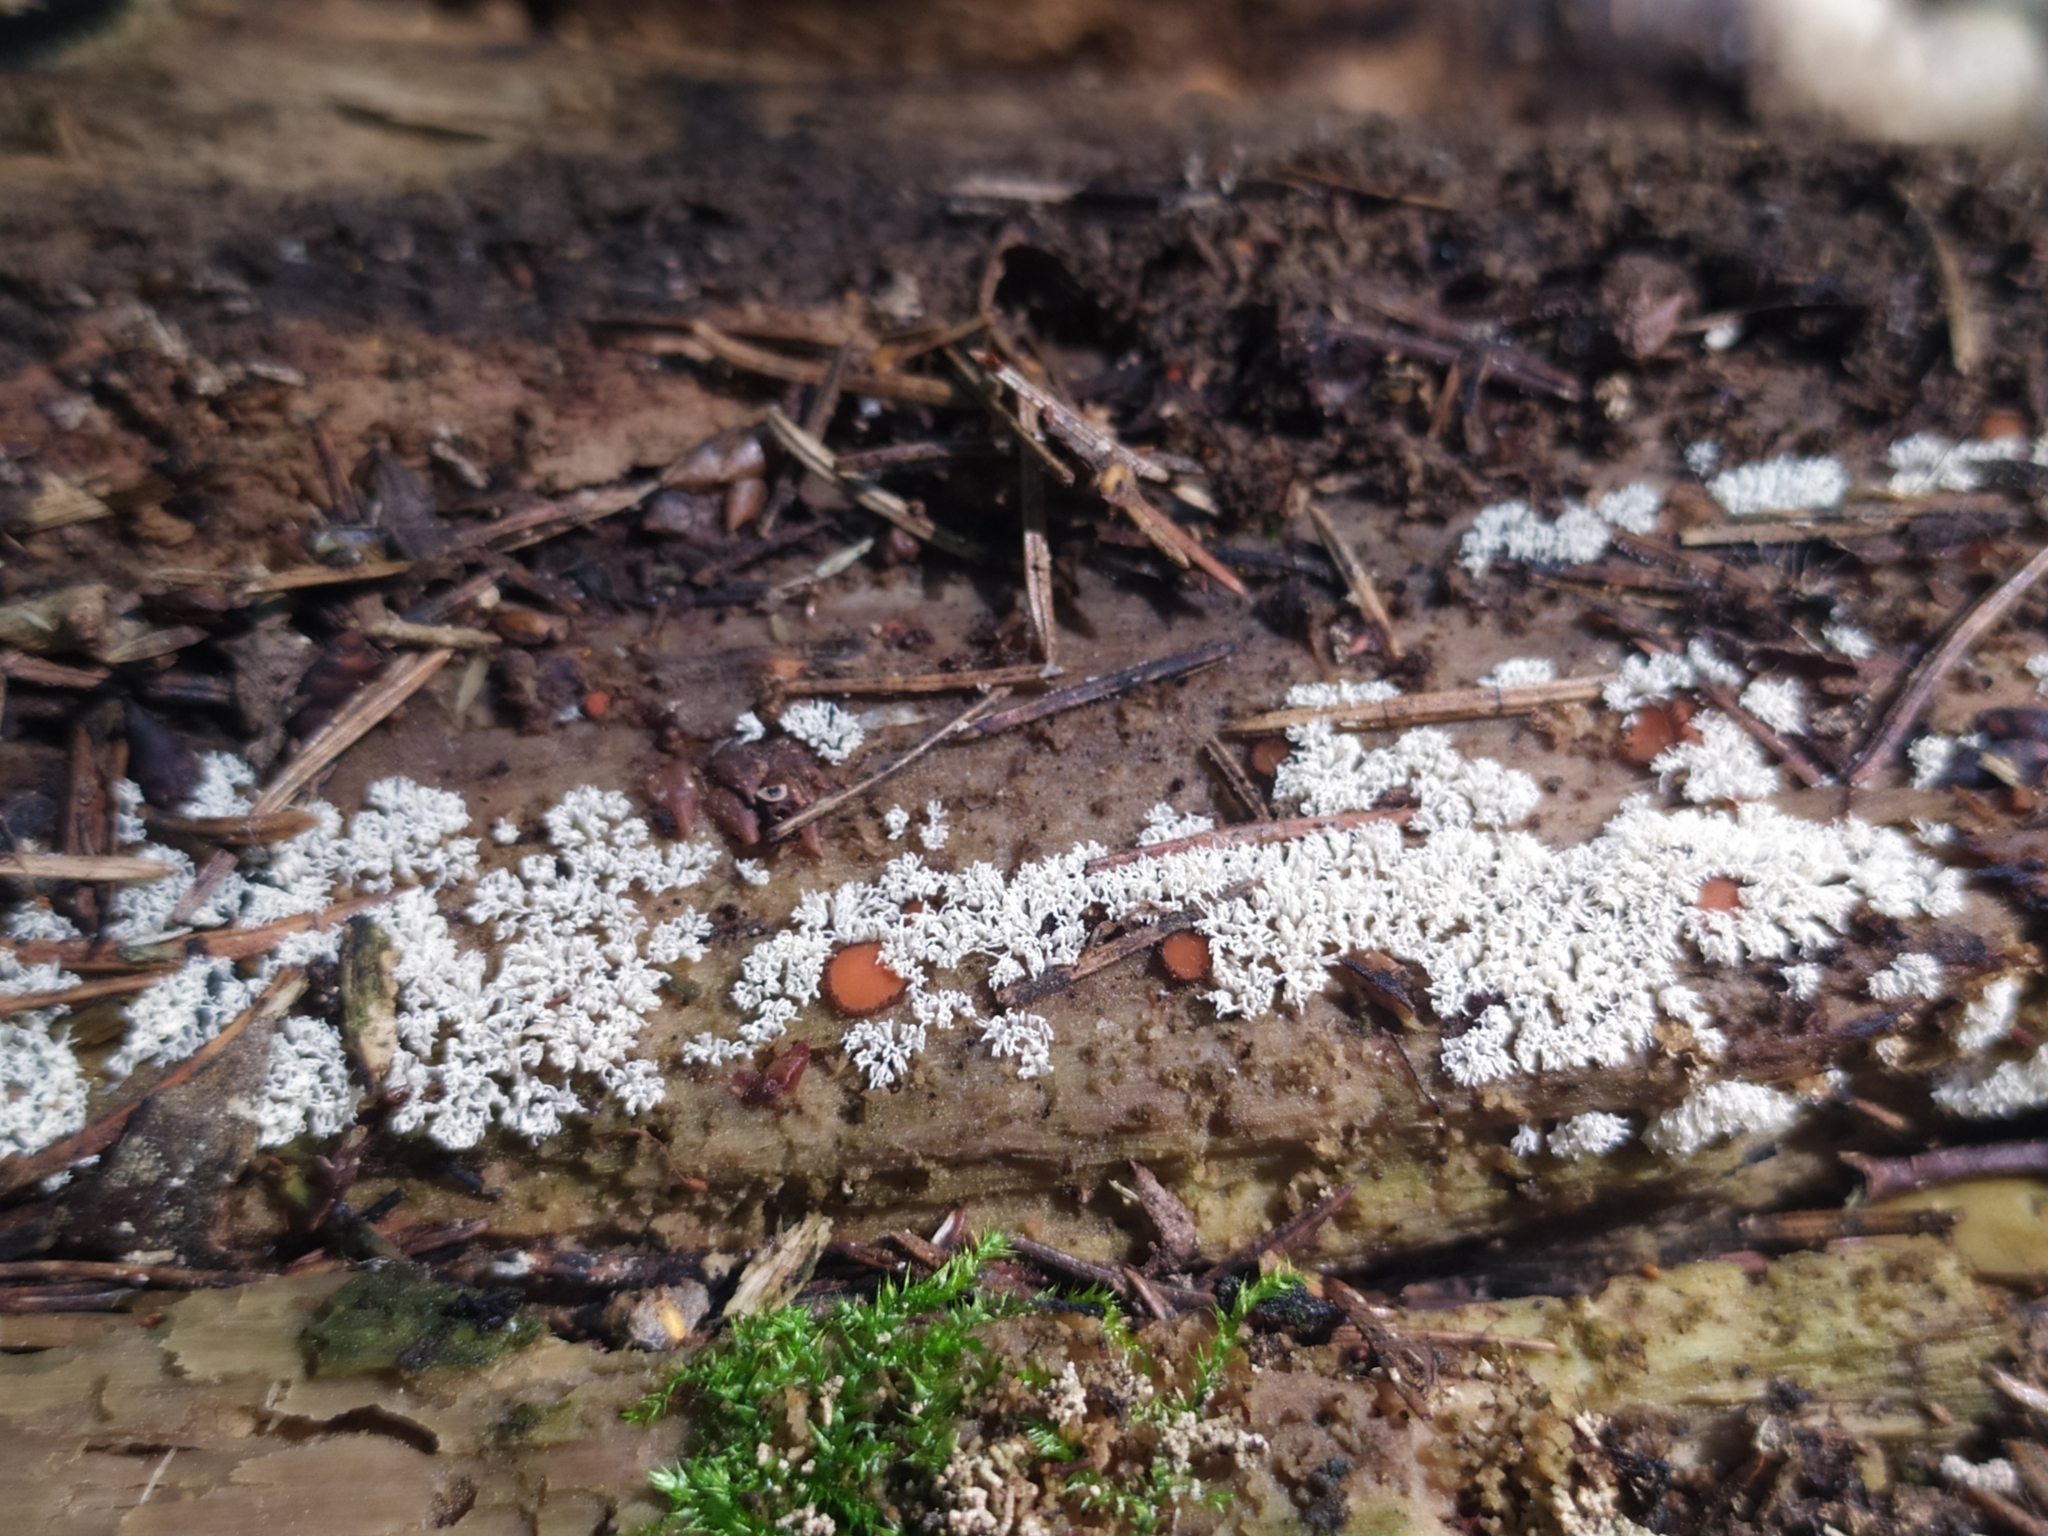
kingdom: Protozoa
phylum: Mycetozoa
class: Protosteliomycetes
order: Ceratiomyxales
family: Ceratiomyxaceae
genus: Ceratiomyxa
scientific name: Ceratiomyxa fruticulosa
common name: Honeycomb coral slime mold
